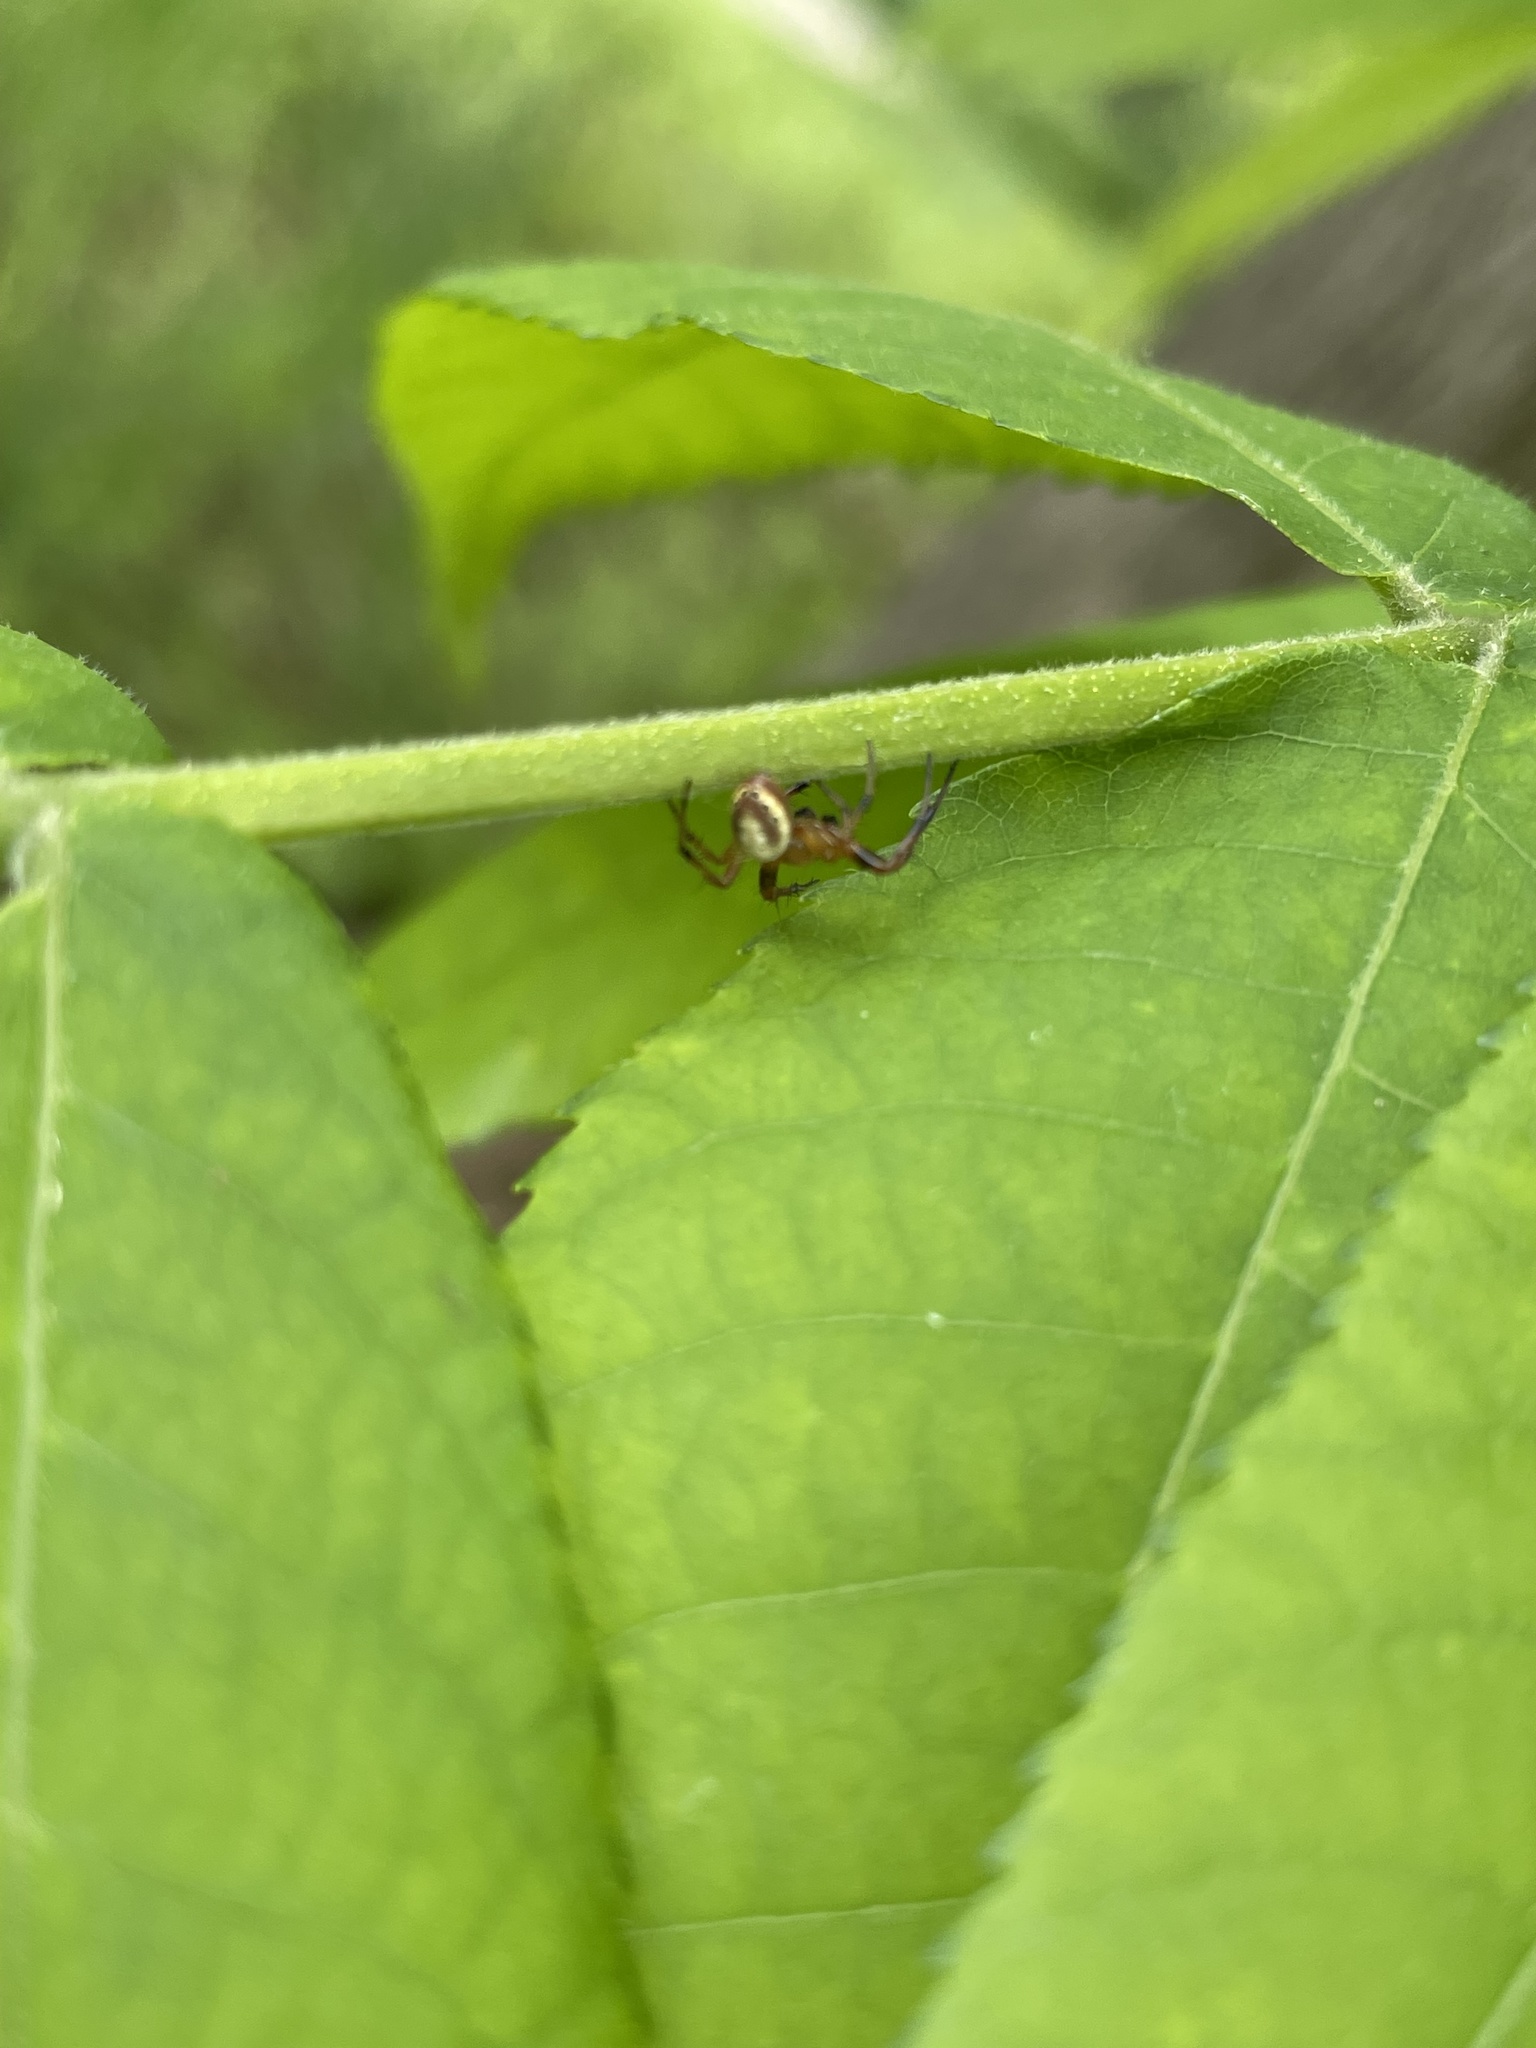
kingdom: Animalia
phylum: Arthropoda
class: Arachnida
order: Araneae
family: Araneidae
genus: Araniella
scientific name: Araniella displicata
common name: Sixspotted orb weaver
